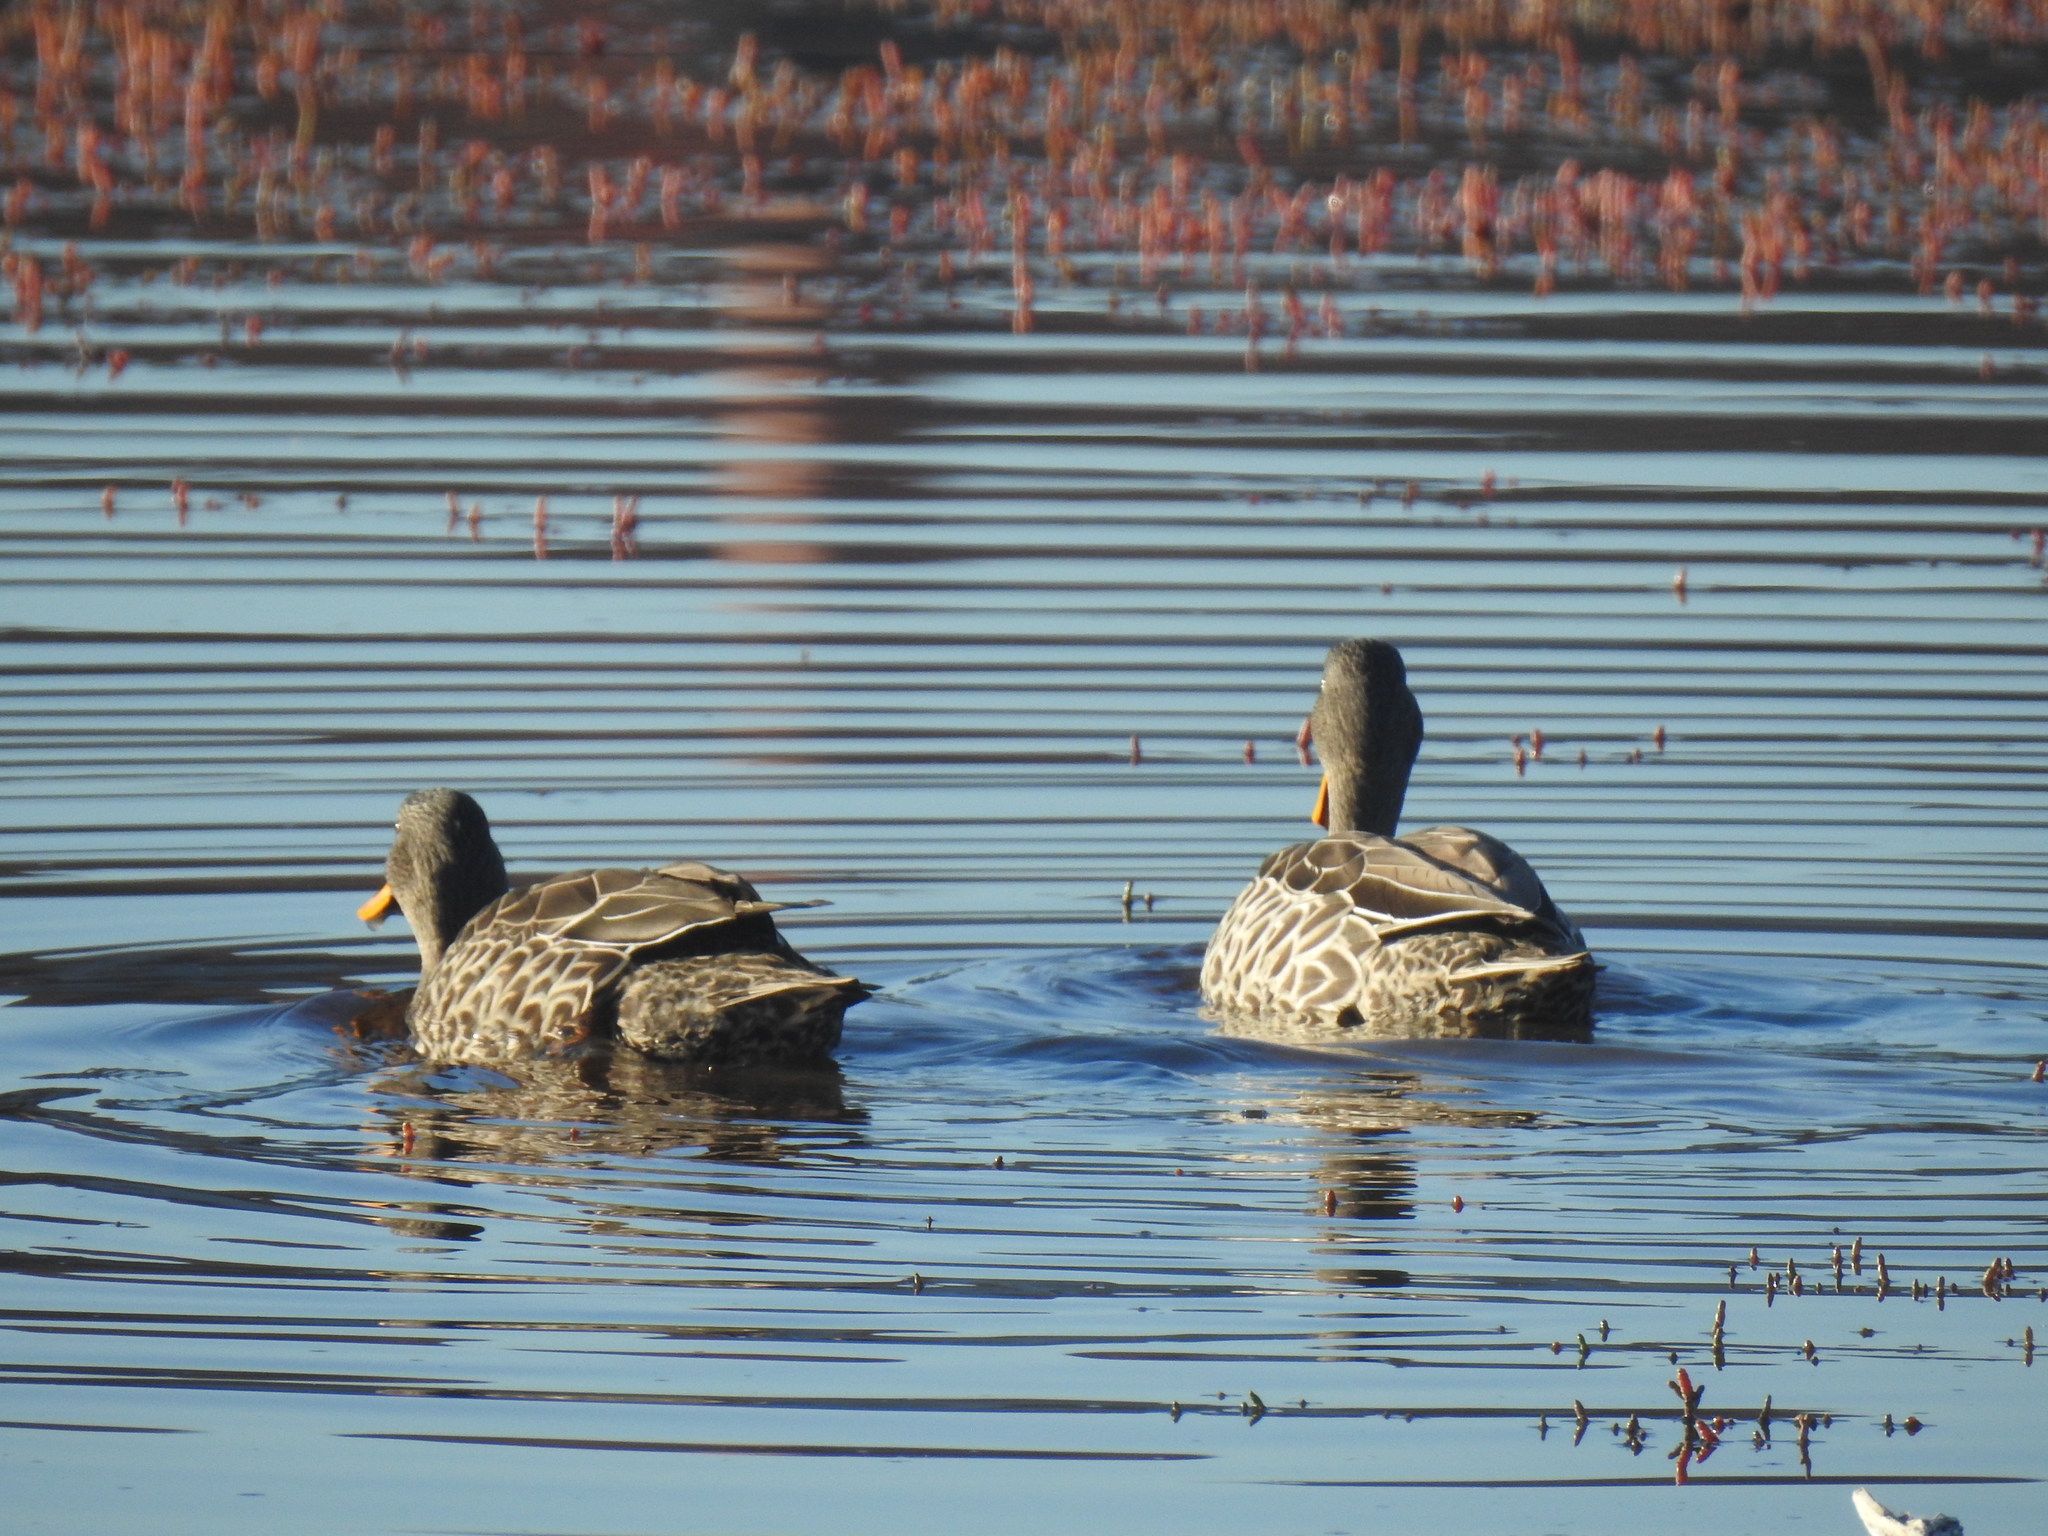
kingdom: Animalia
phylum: Chordata
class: Aves
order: Anseriformes
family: Anatidae
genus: Anas
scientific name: Anas undulata
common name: Yellow-billed duck
